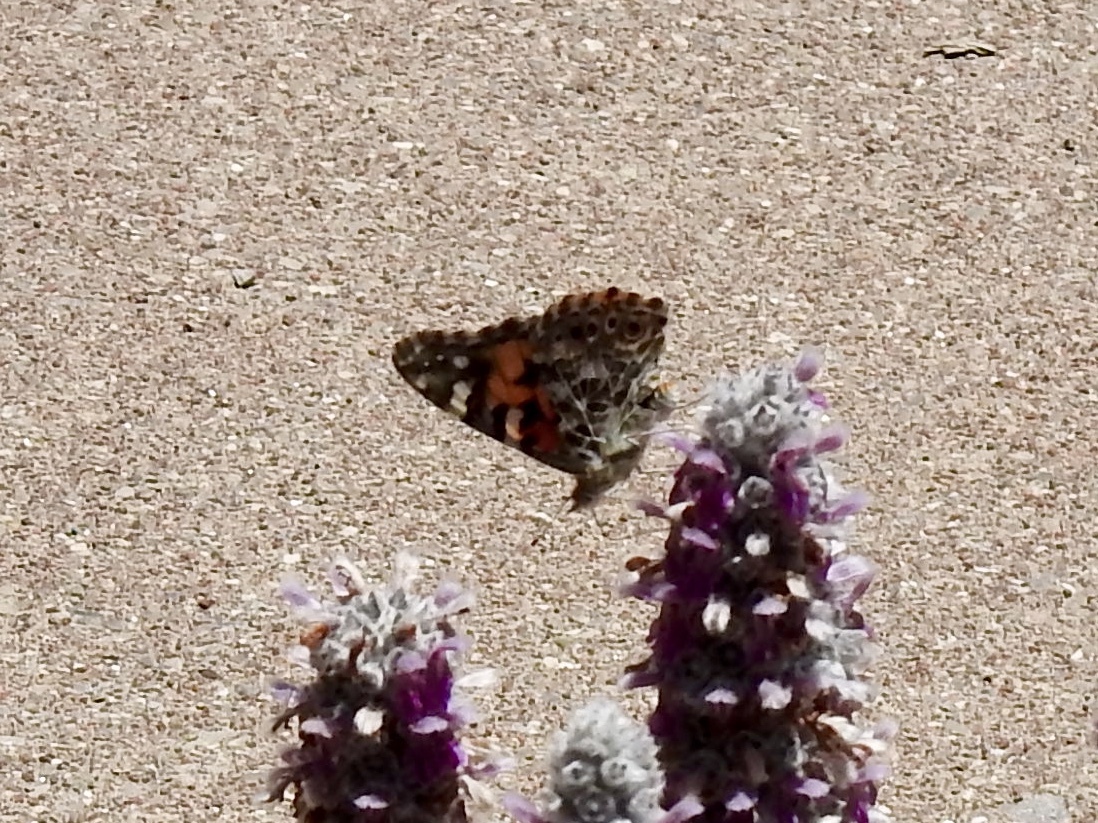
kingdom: Animalia
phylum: Arthropoda
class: Insecta
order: Lepidoptera
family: Nymphalidae
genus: Vanessa
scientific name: Vanessa cardui
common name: Painted lady
